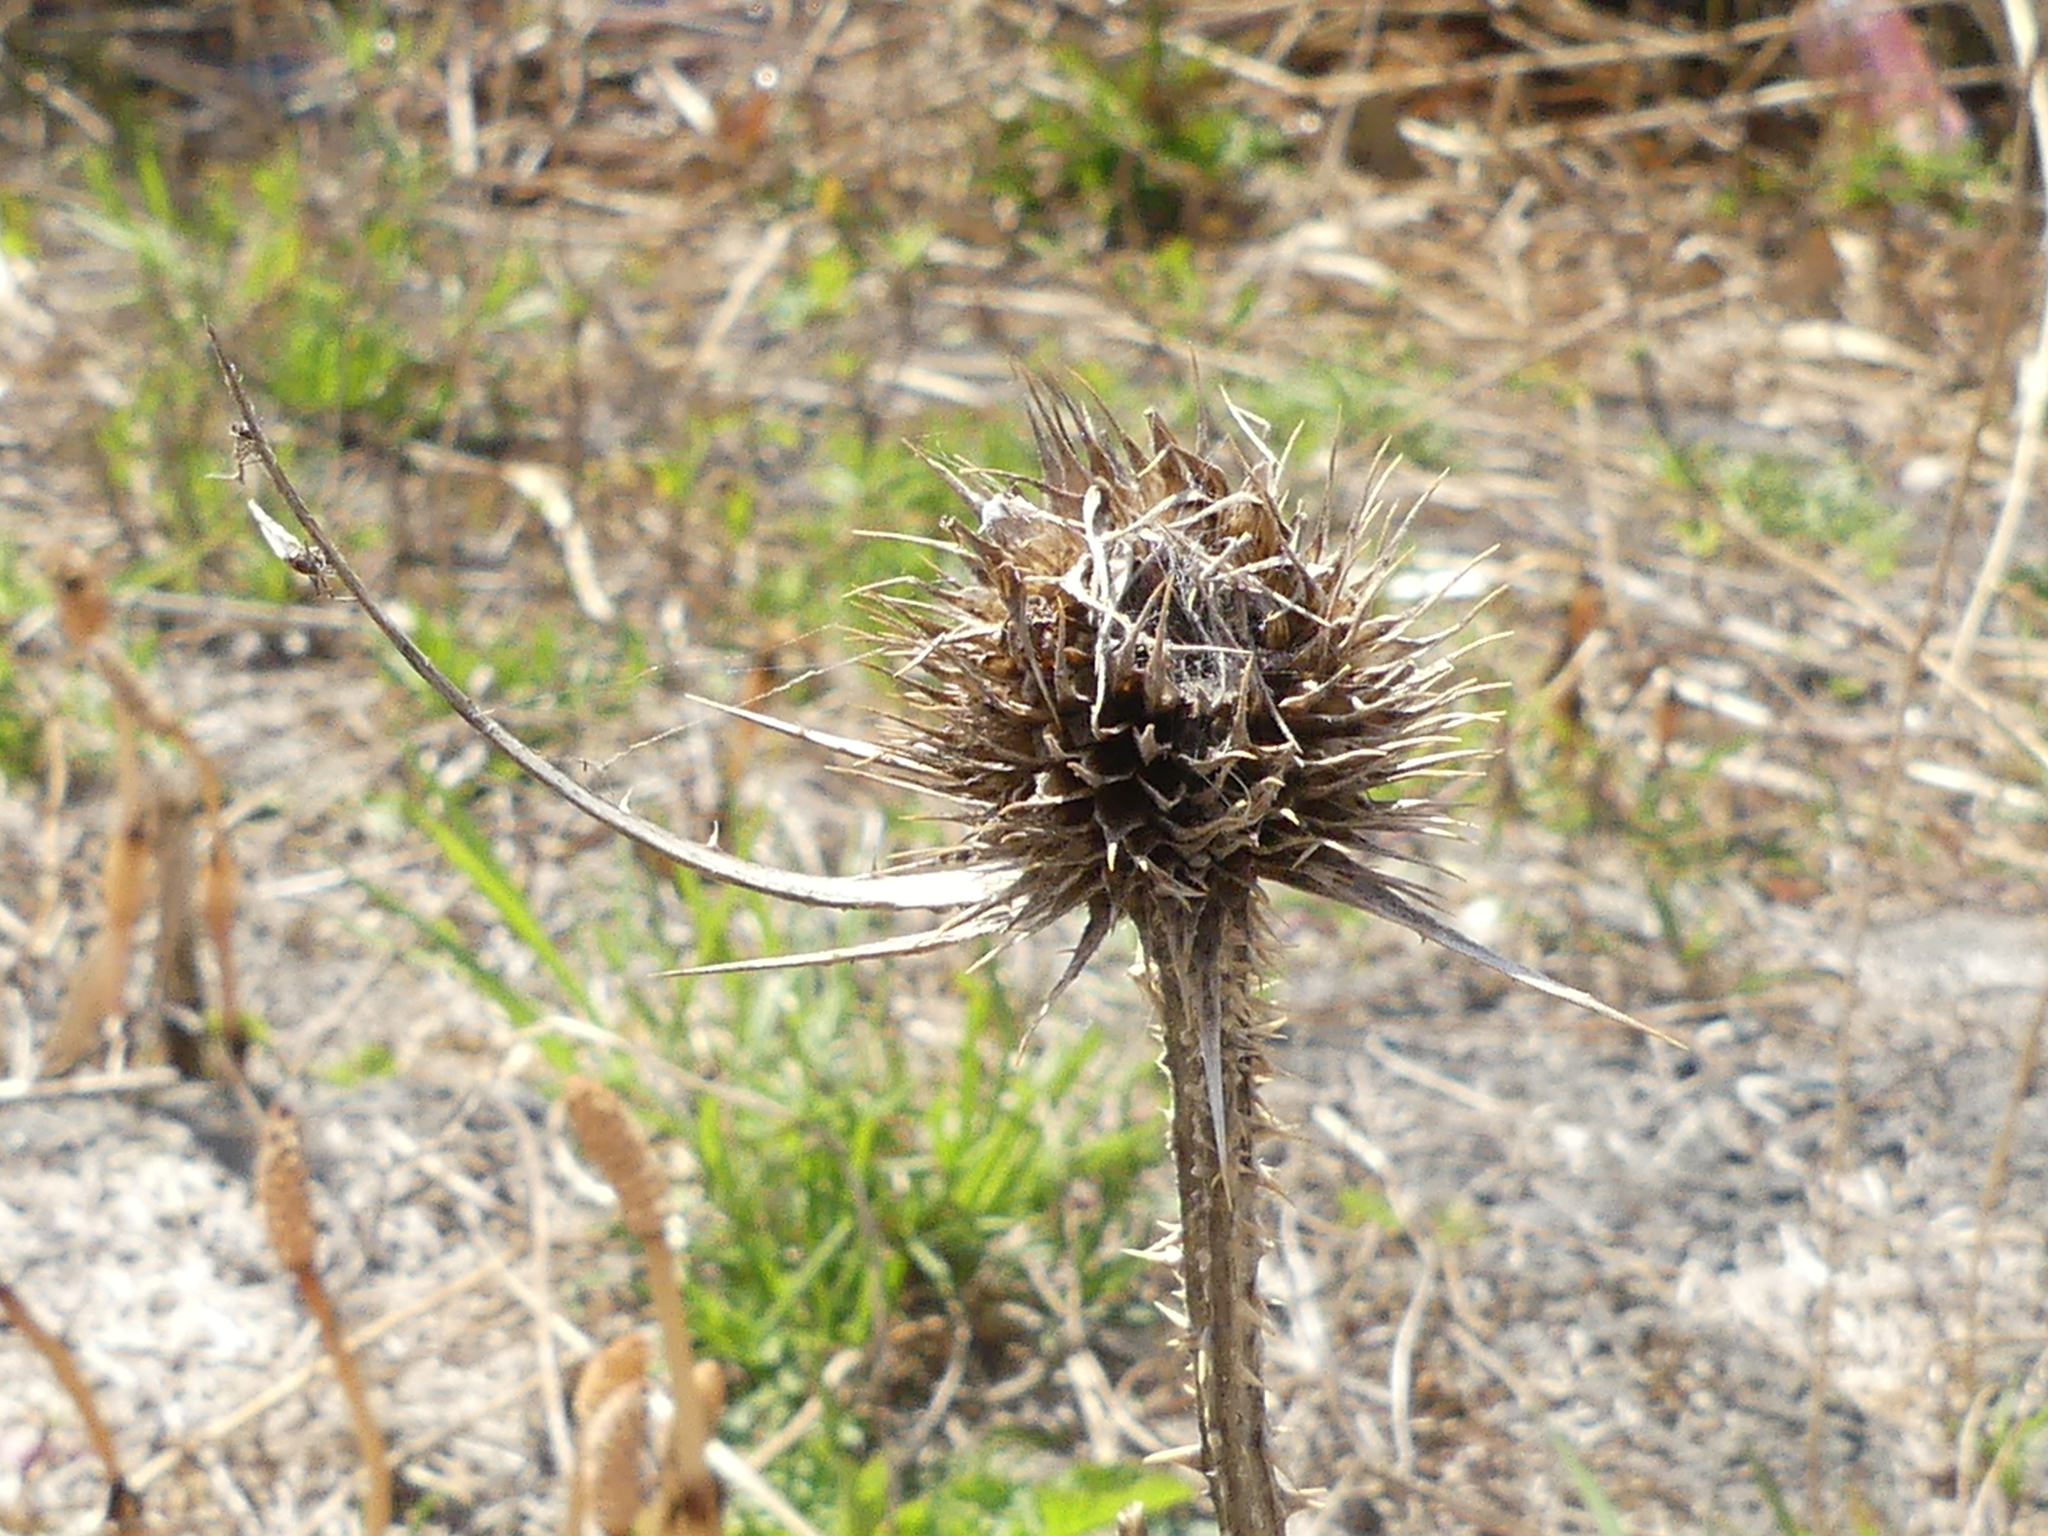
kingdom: Plantae
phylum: Tracheophyta
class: Magnoliopsida
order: Dipsacales
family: Caprifoliaceae
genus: Dipsacus
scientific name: Dipsacus fullonum
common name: Teasel
